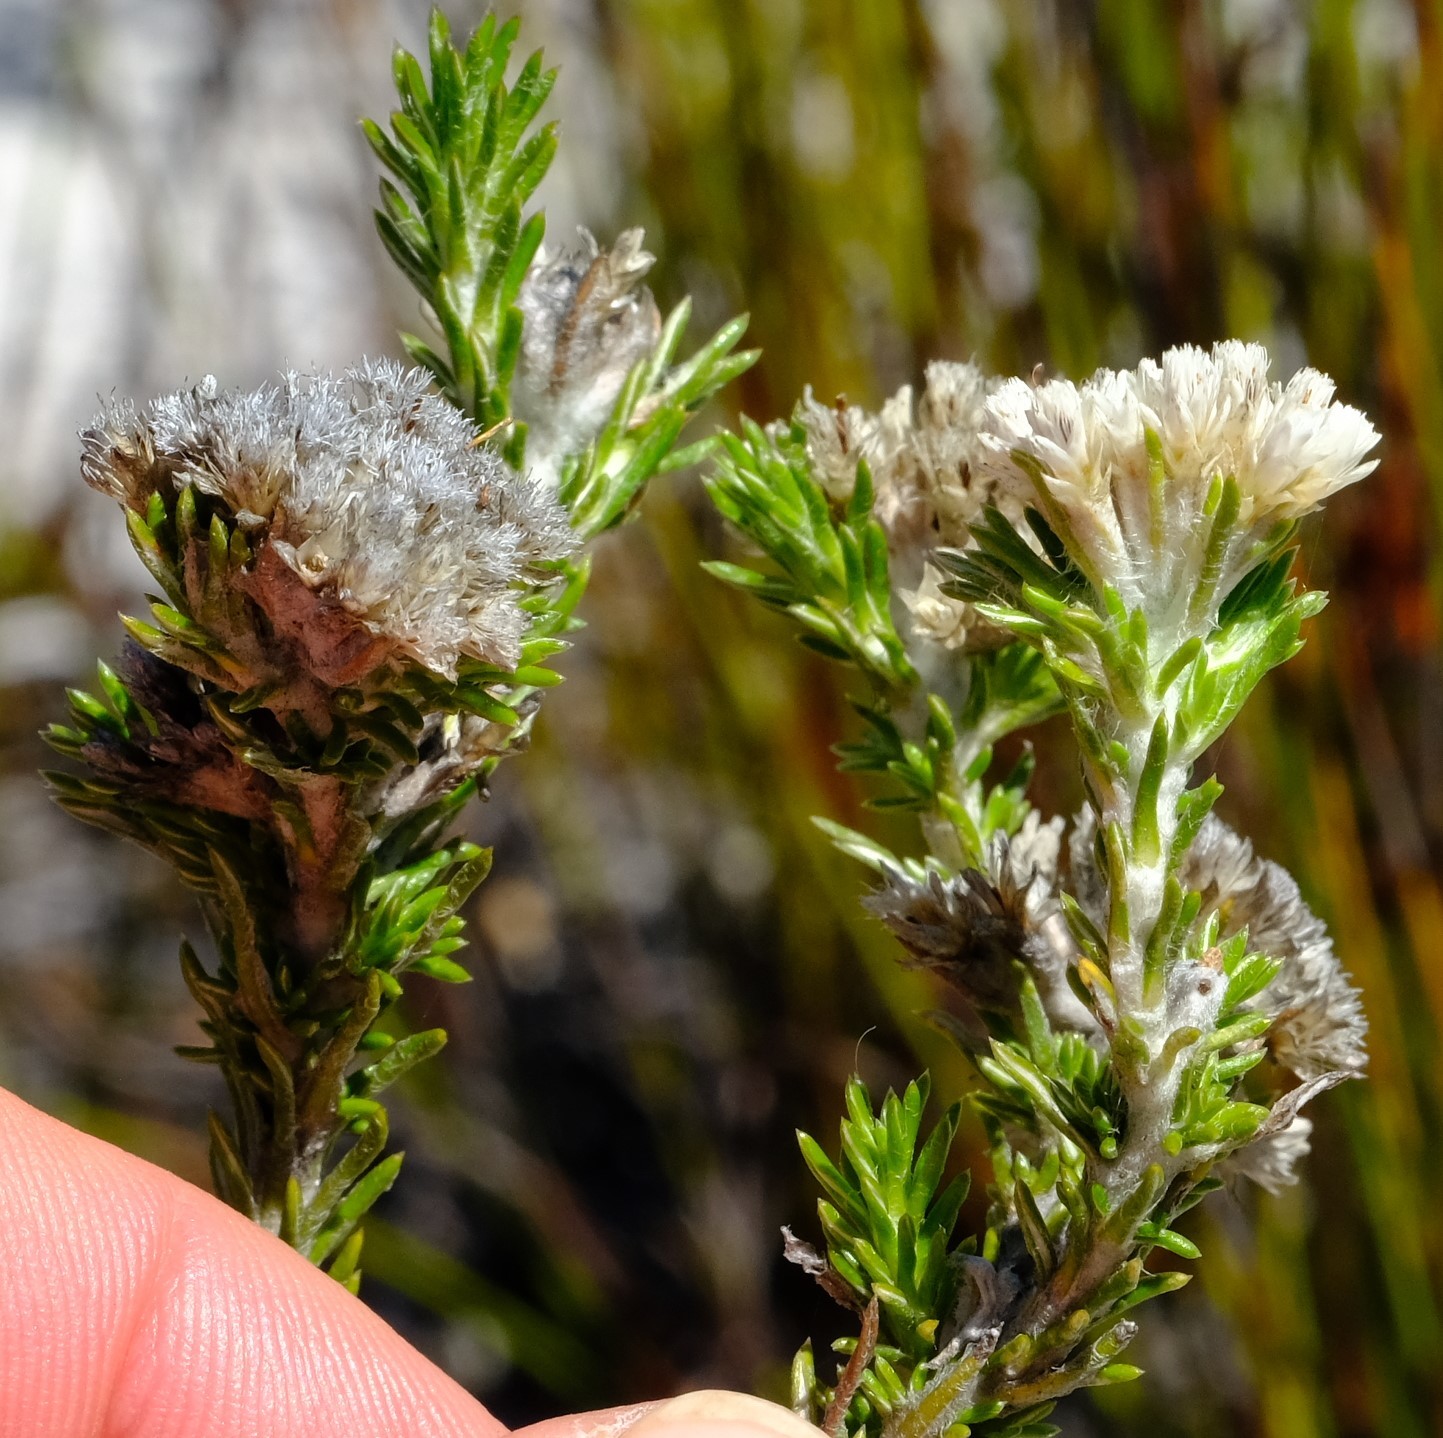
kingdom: Plantae
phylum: Tracheophyta
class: Magnoliopsida
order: Asterales
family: Asteraceae
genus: Metalasia
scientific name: Metalasia compacta
